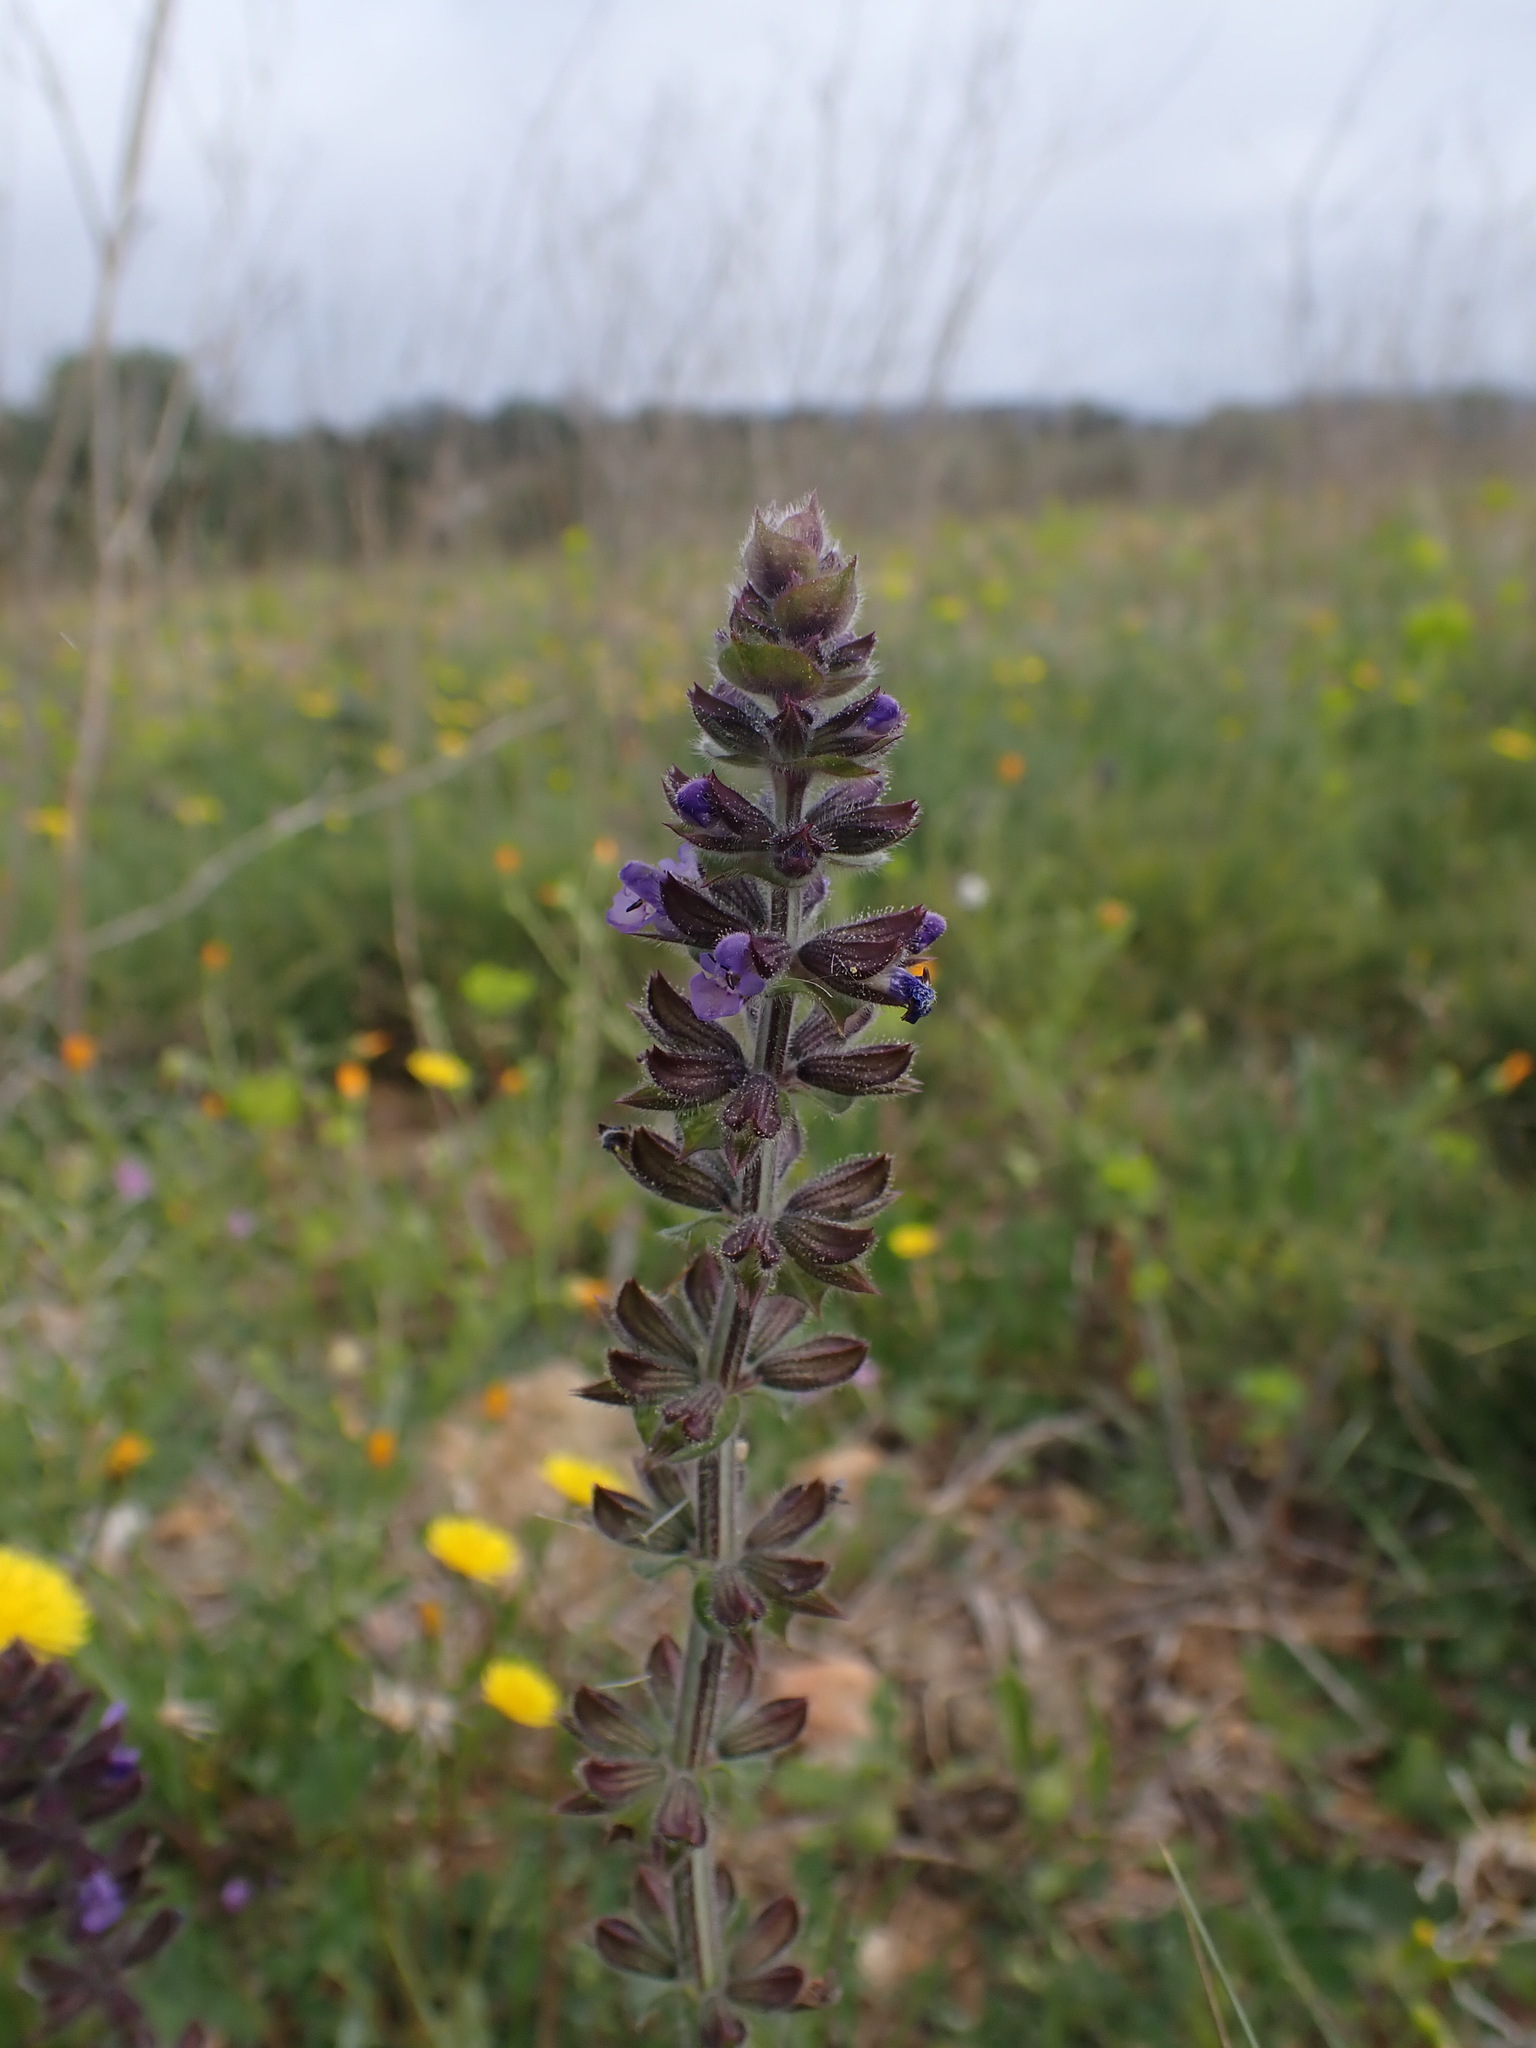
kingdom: Plantae
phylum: Tracheophyta
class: Magnoliopsida
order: Lamiales
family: Lamiaceae
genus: Salvia
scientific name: Salvia verbenaca
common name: Wild clary
